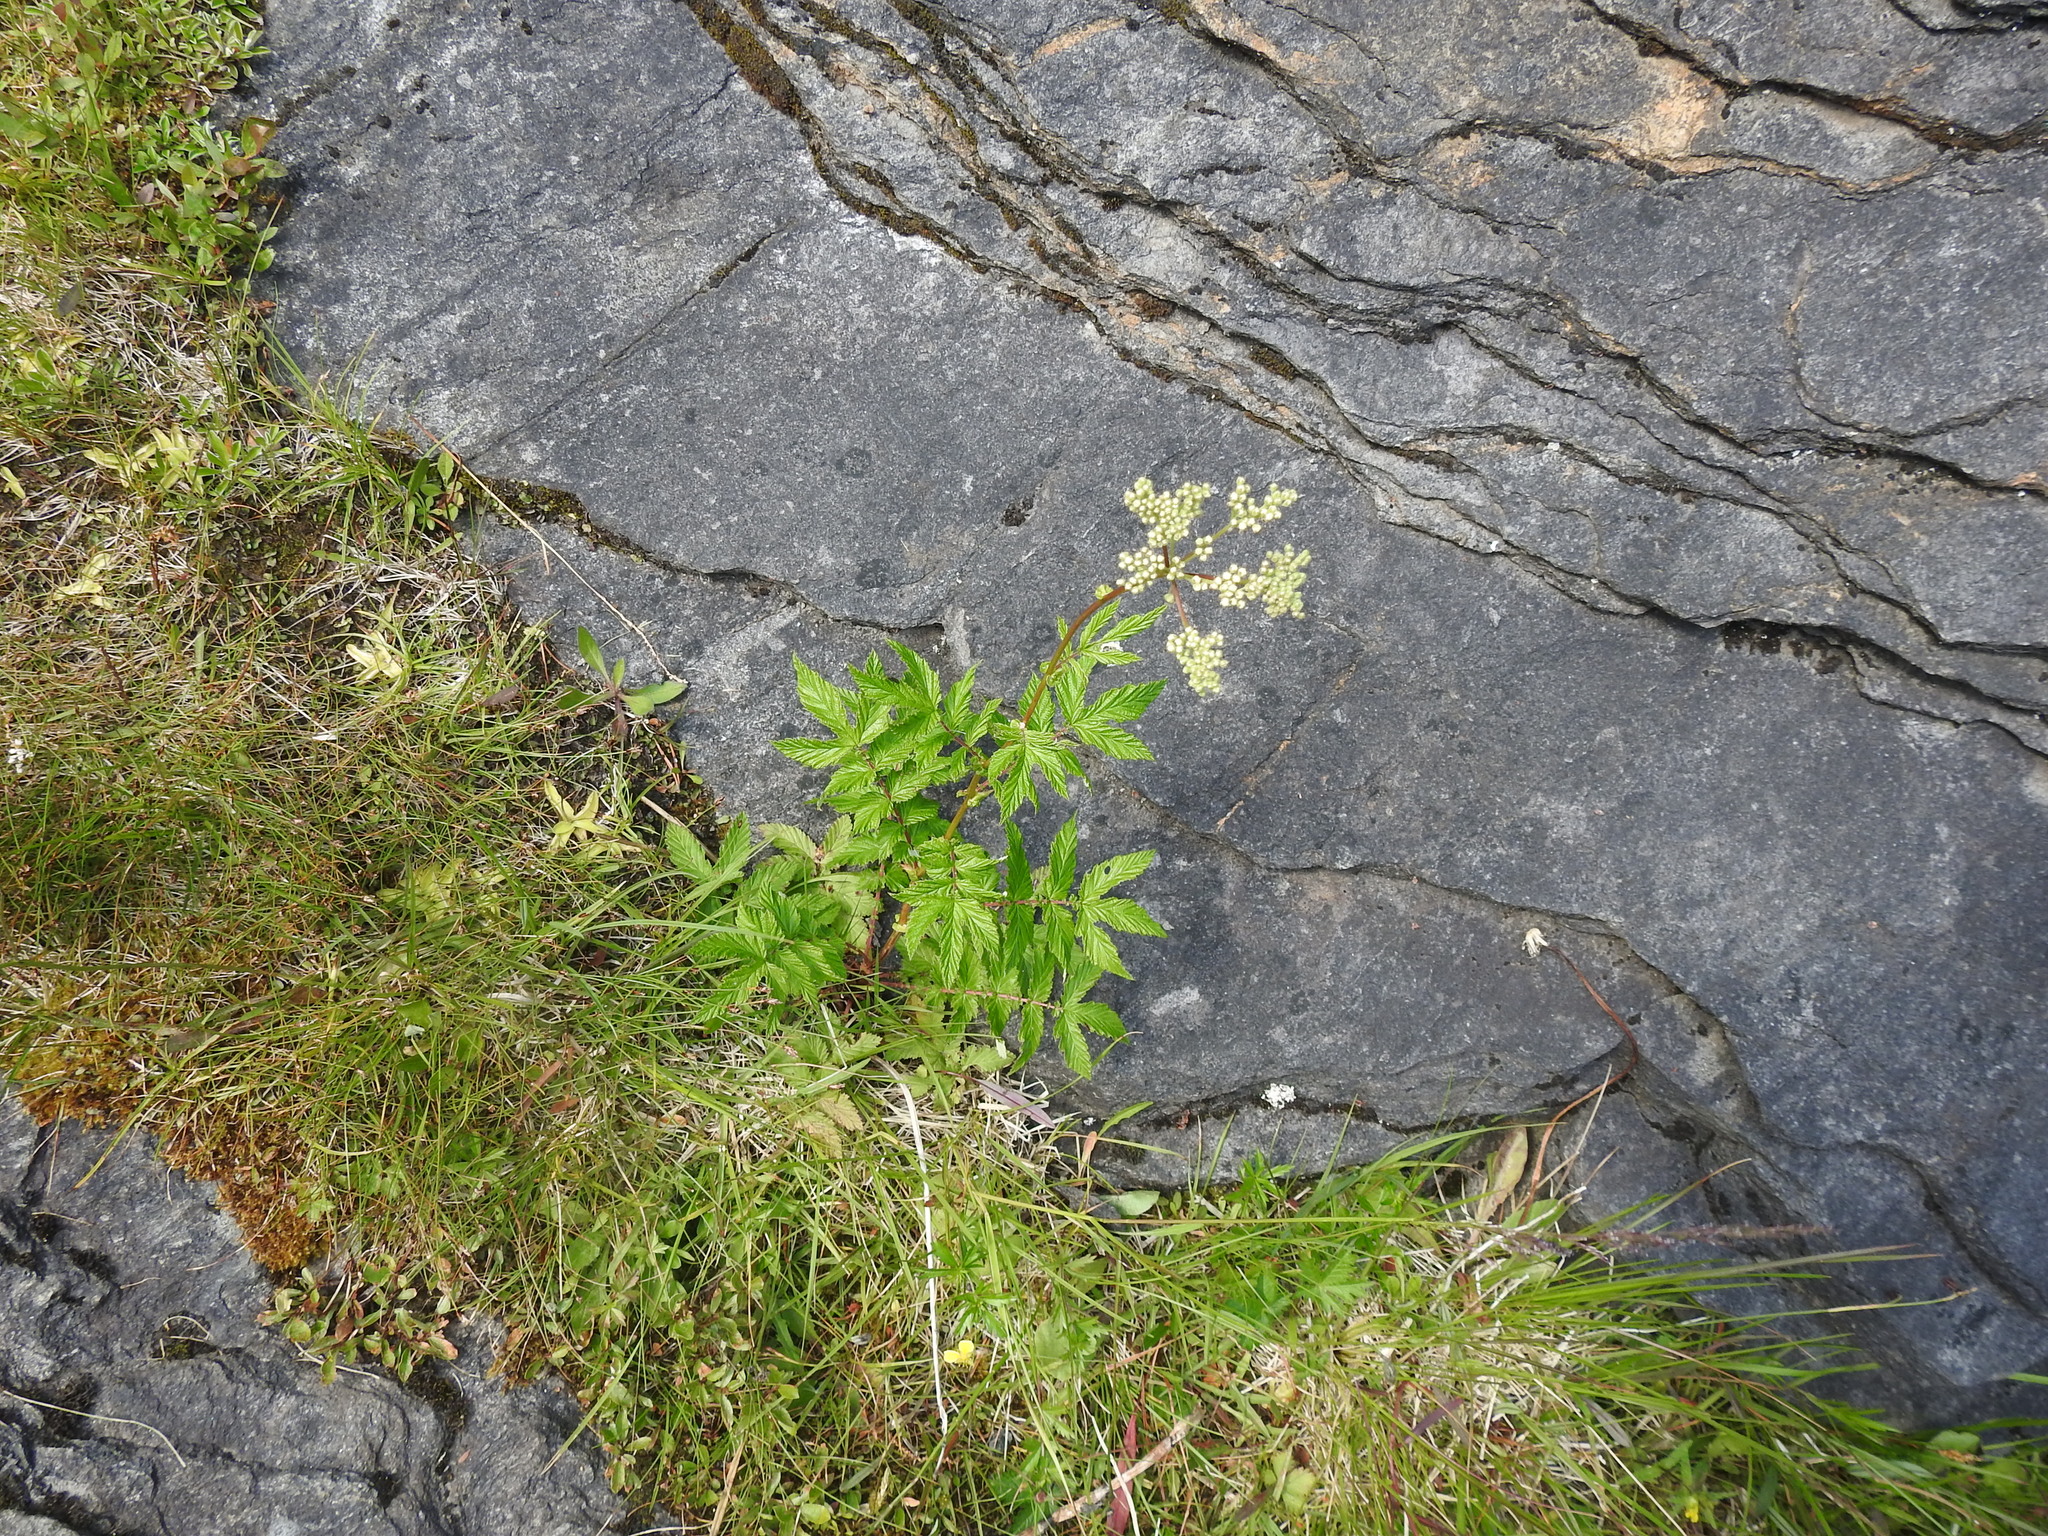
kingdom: Plantae
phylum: Tracheophyta
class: Magnoliopsida
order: Rosales
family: Rosaceae
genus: Filipendula
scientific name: Filipendula ulmaria
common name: Meadowsweet
